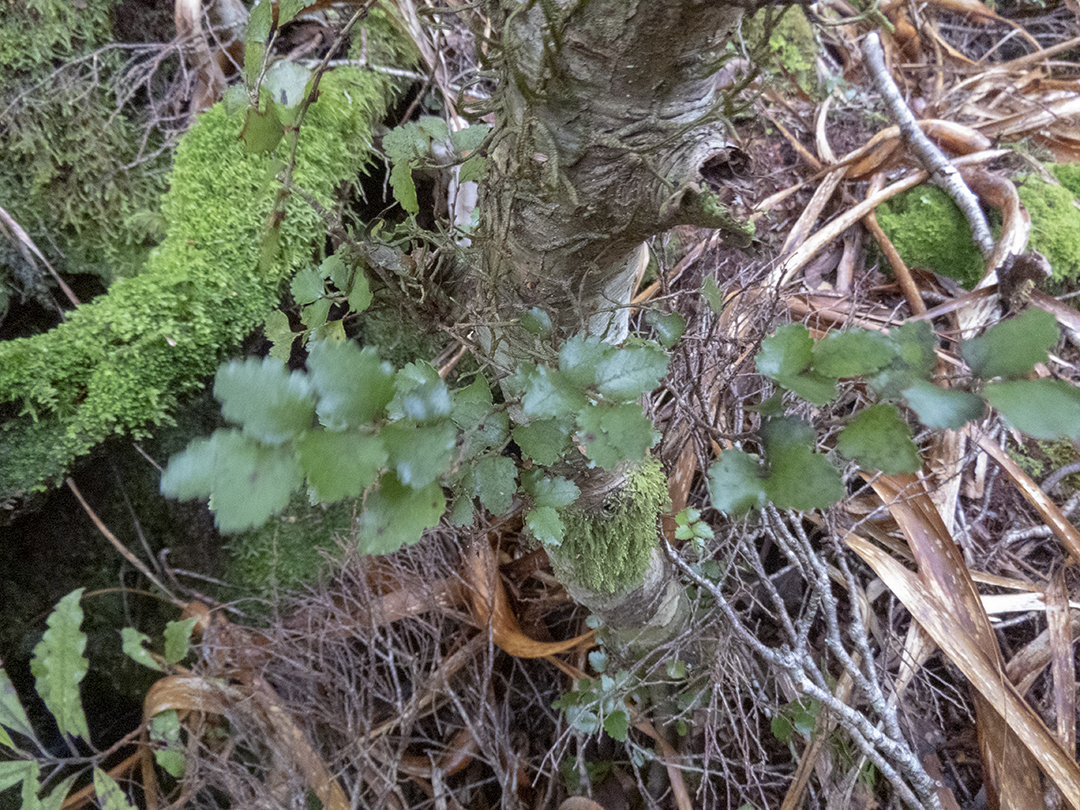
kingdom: Plantae
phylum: Tracheophyta
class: Magnoliopsida
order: Fagales
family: Nothofagaceae
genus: Nothofagus
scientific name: Nothofagus menziesii
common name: Silver beech
